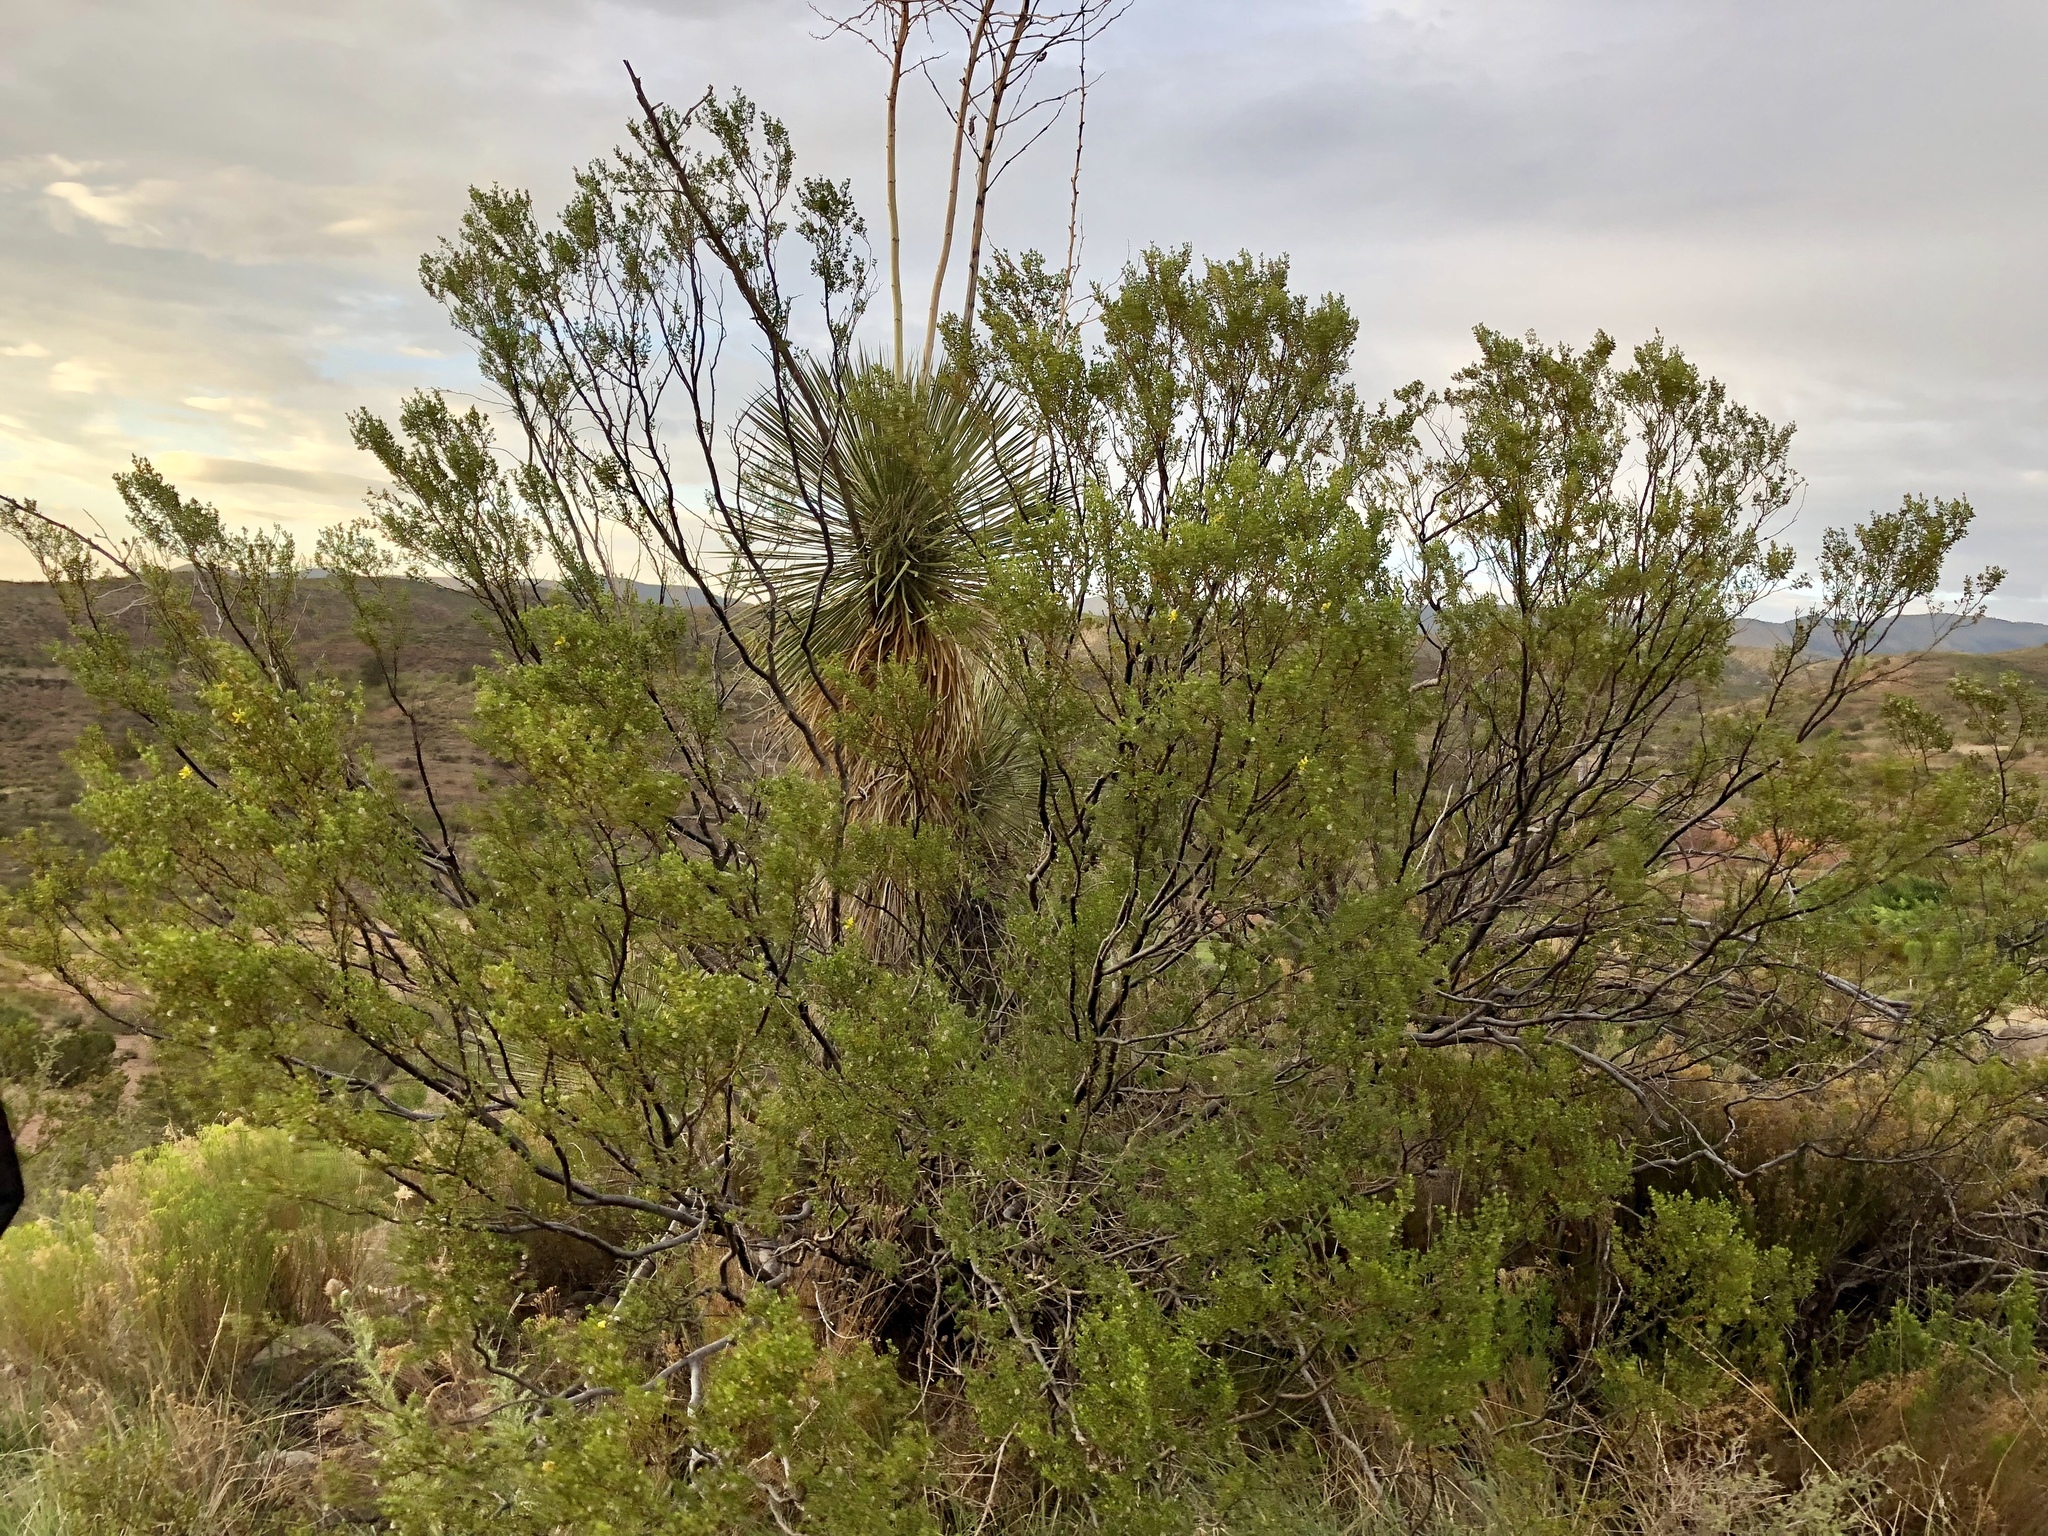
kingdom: Plantae
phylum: Tracheophyta
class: Magnoliopsida
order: Zygophyllales
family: Zygophyllaceae
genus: Larrea
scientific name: Larrea tridentata
